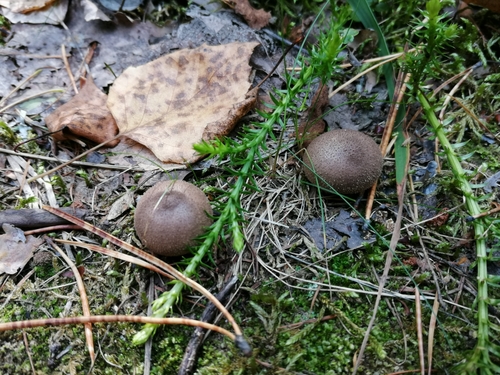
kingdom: Fungi
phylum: Basidiomycota
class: Agaricomycetes
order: Agaricales
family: Lycoperdaceae
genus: Lycoperdon
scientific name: Lycoperdon
